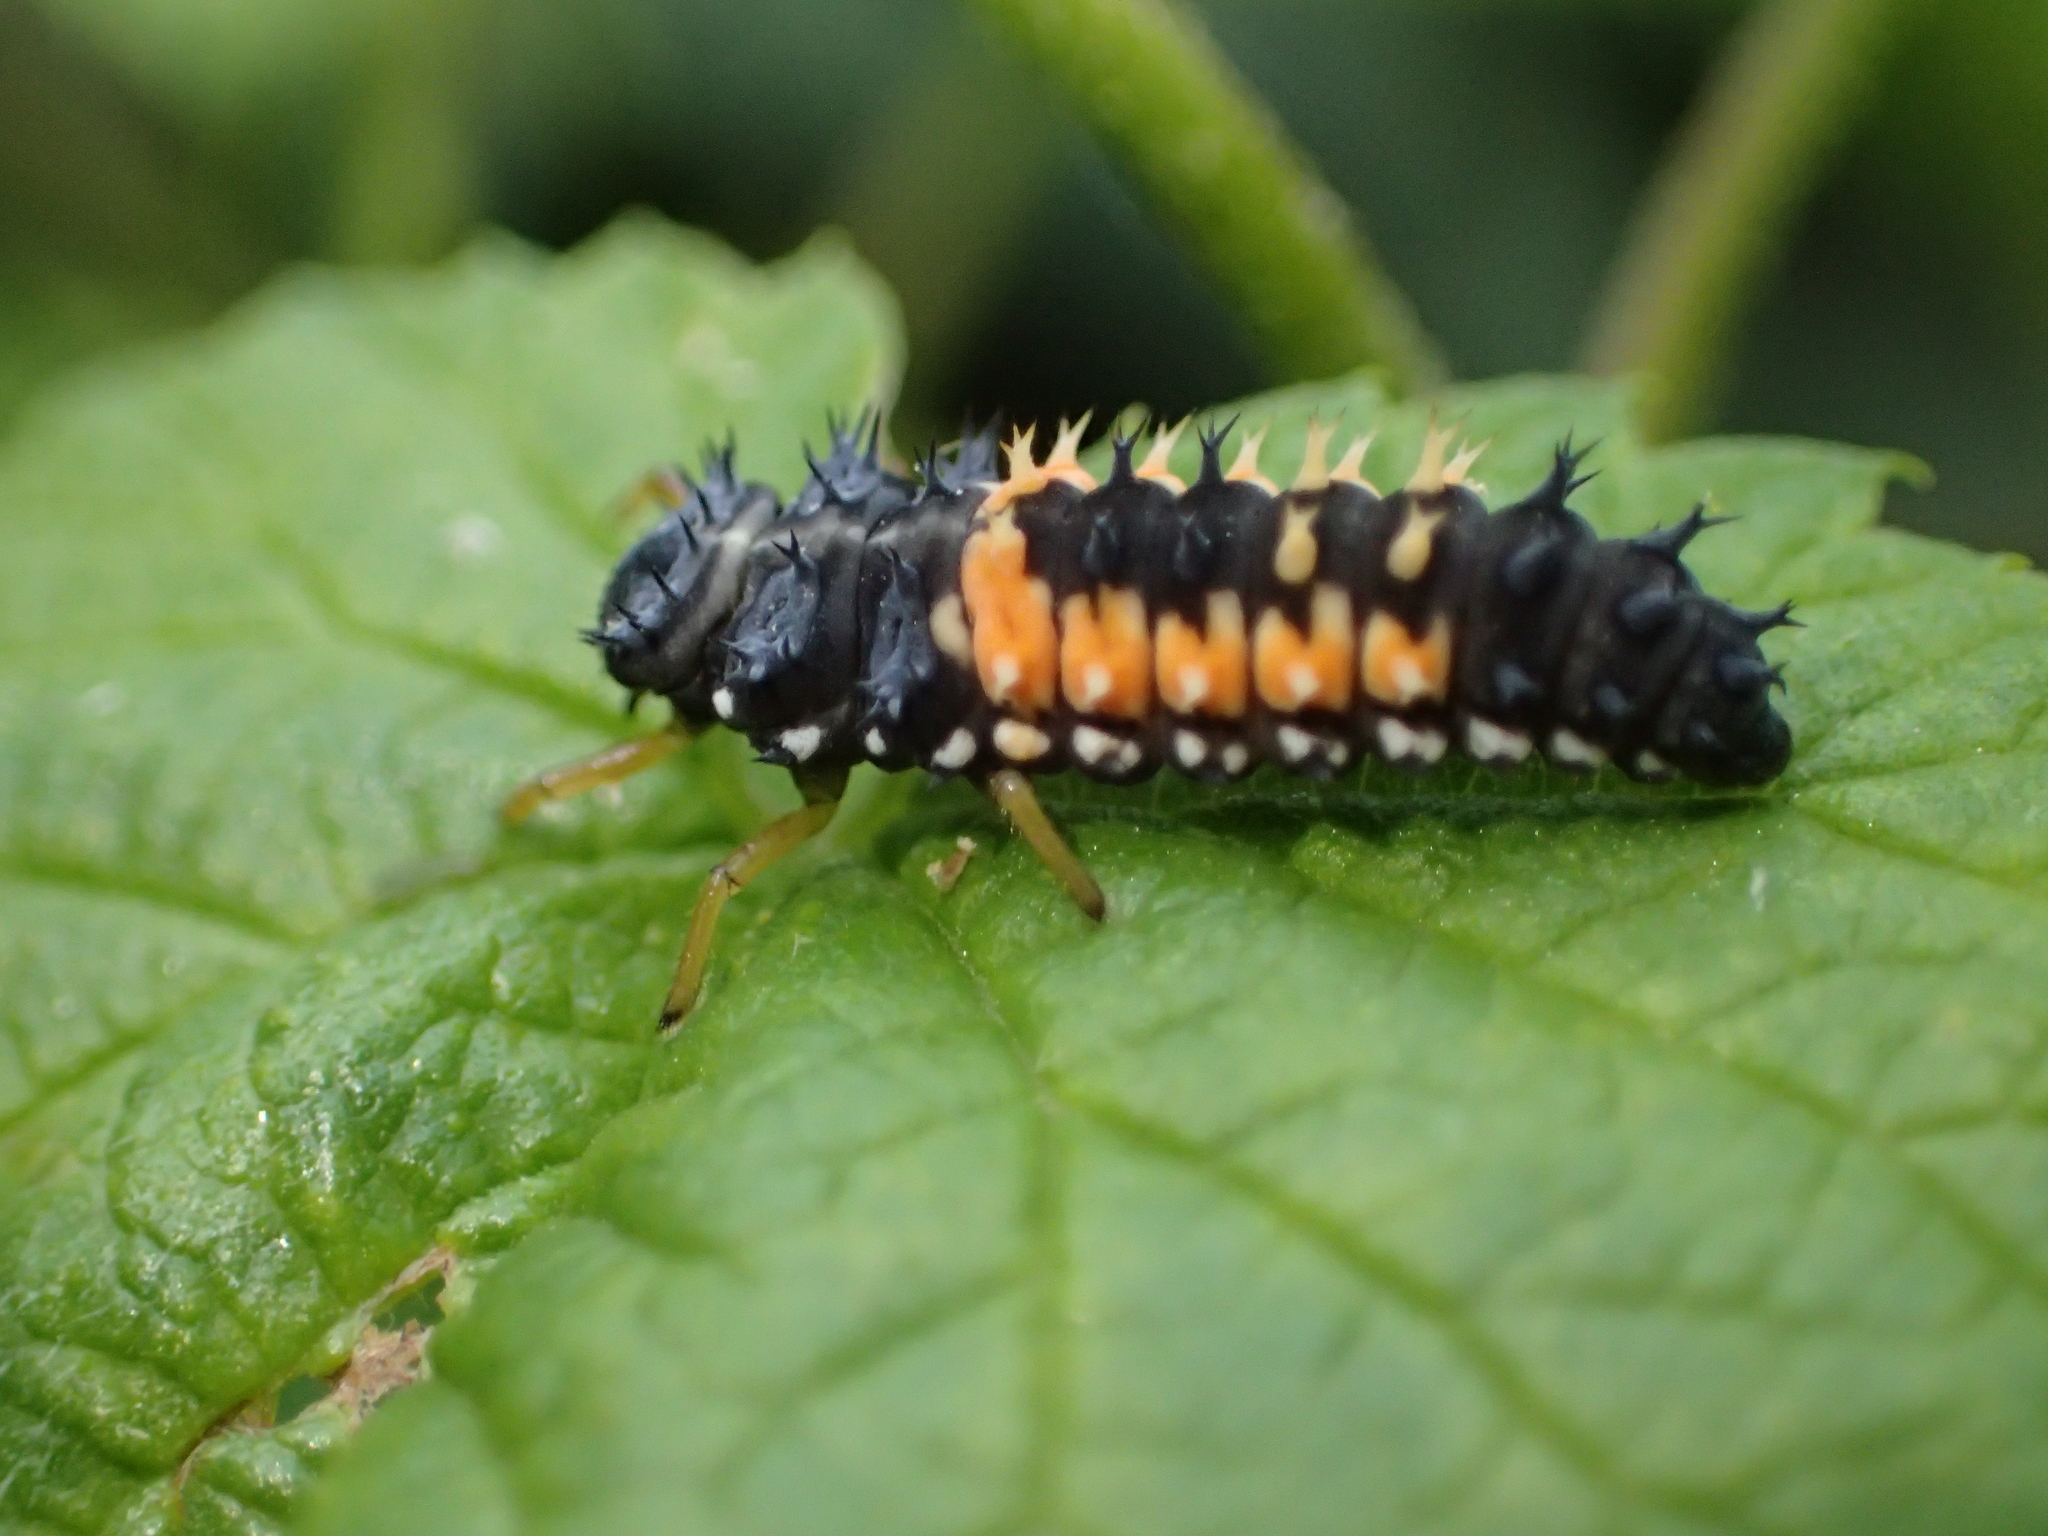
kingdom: Animalia
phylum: Arthropoda
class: Insecta
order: Coleoptera
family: Coccinellidae
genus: Harmonia
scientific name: Harmonia axyridis
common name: Harlequin ladybird
